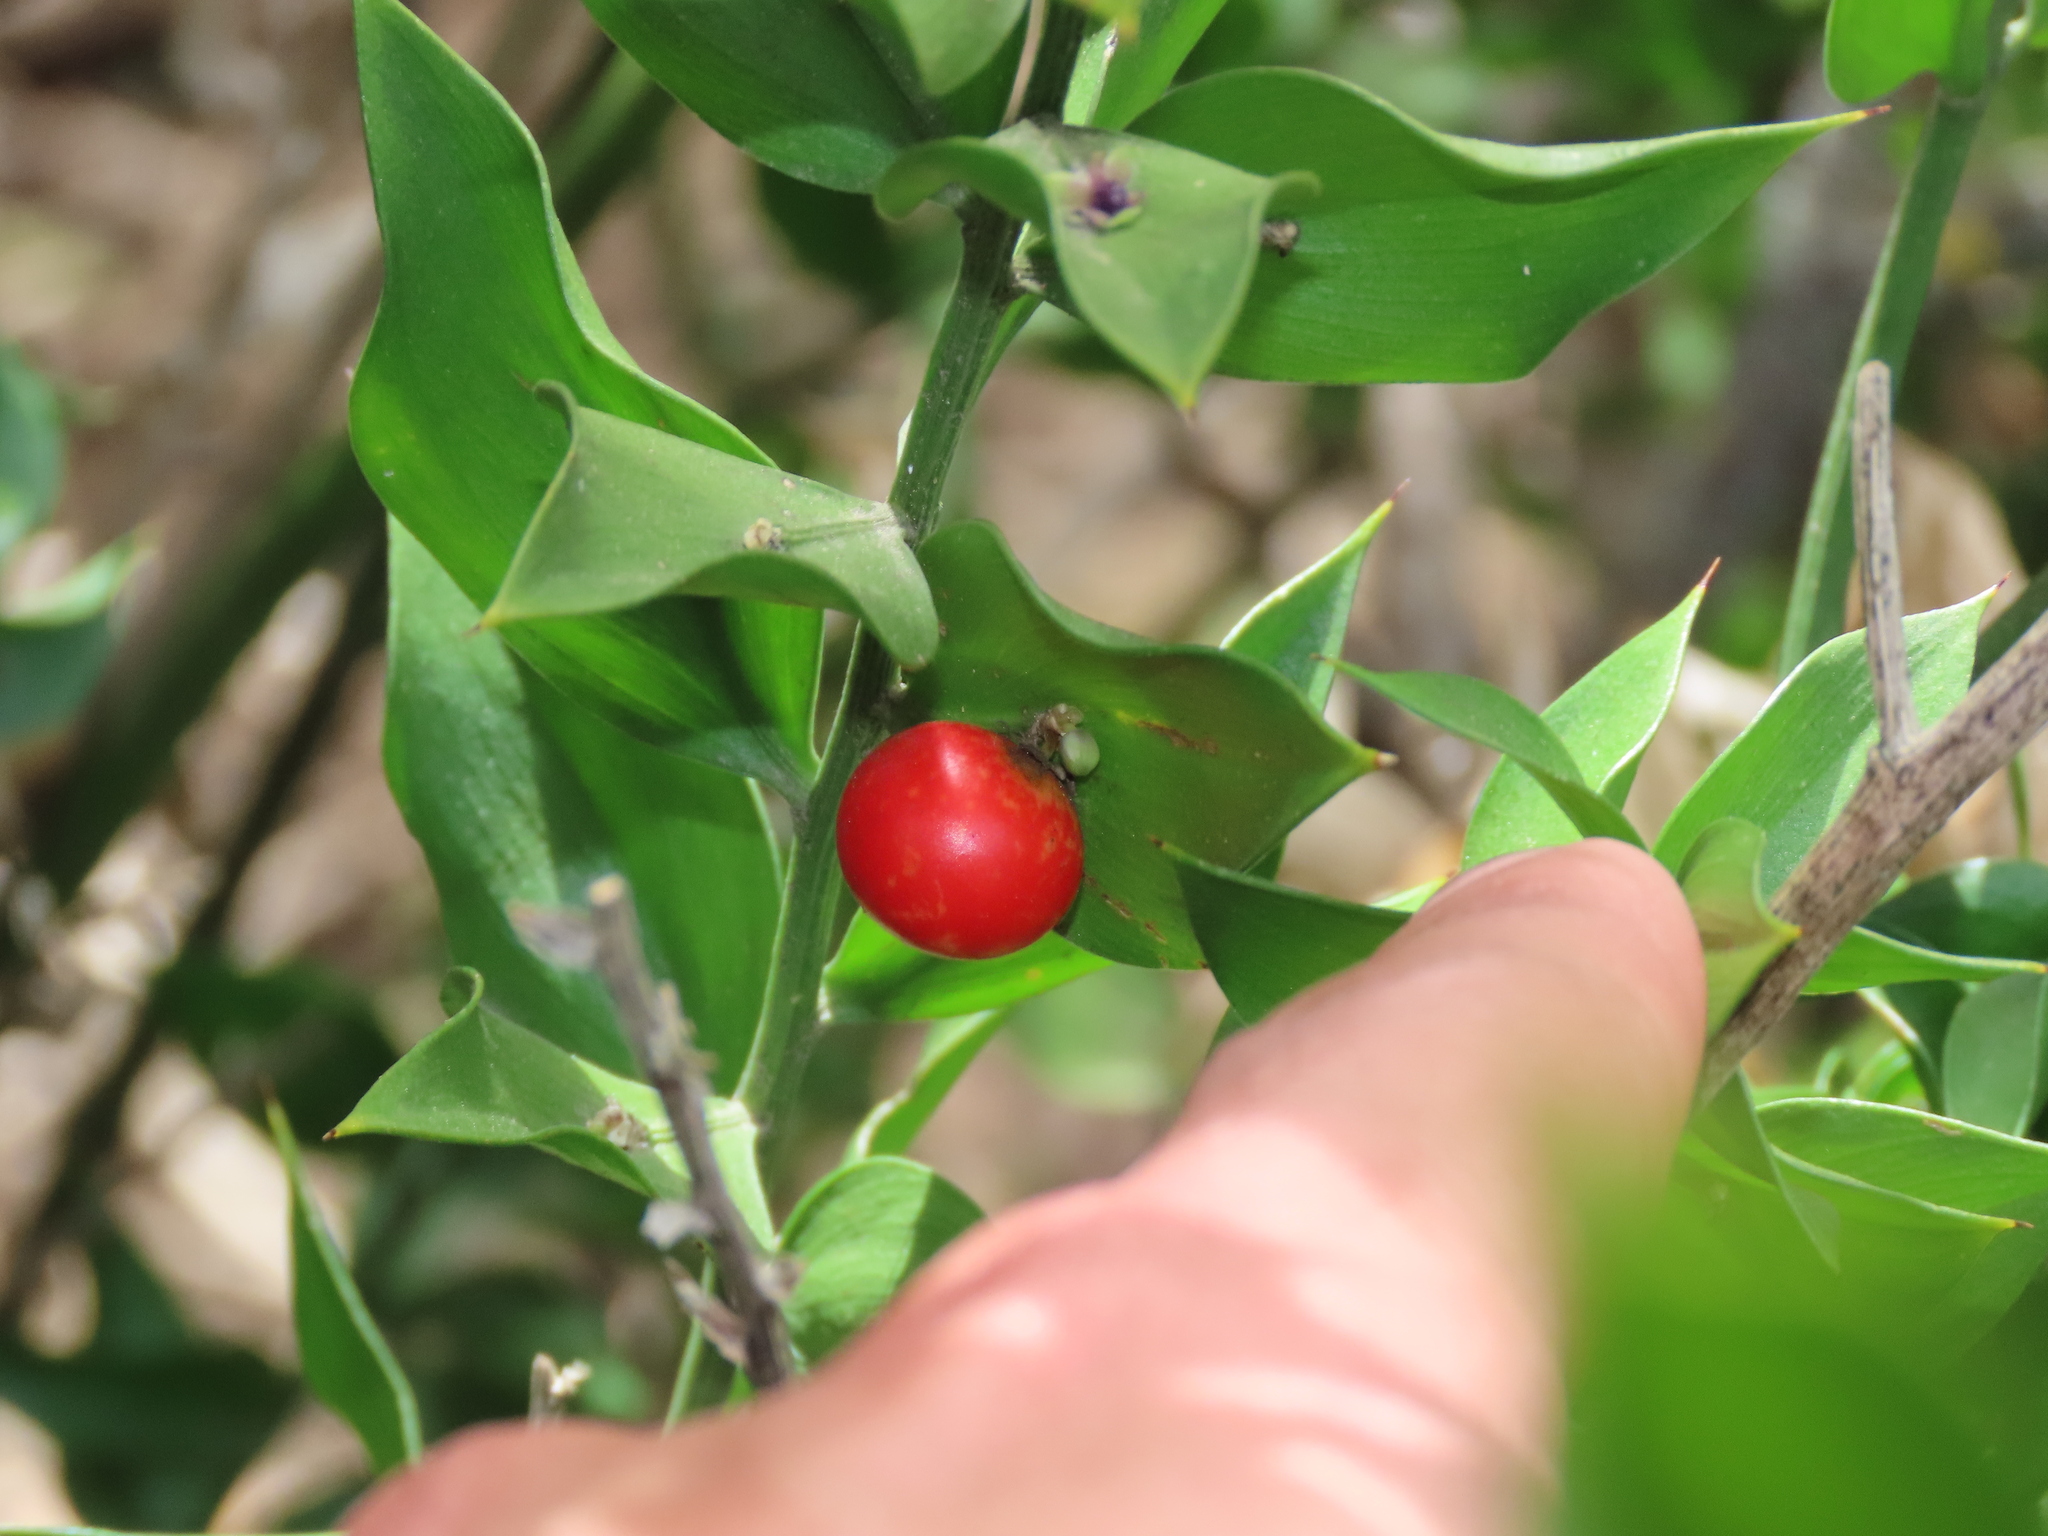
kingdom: Plantae
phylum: Tracheophyta
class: Liliopsida
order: Asparagales
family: Asparagaceae
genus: Ruscus
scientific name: Ruscus aculeatus
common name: Butcher's-broom
